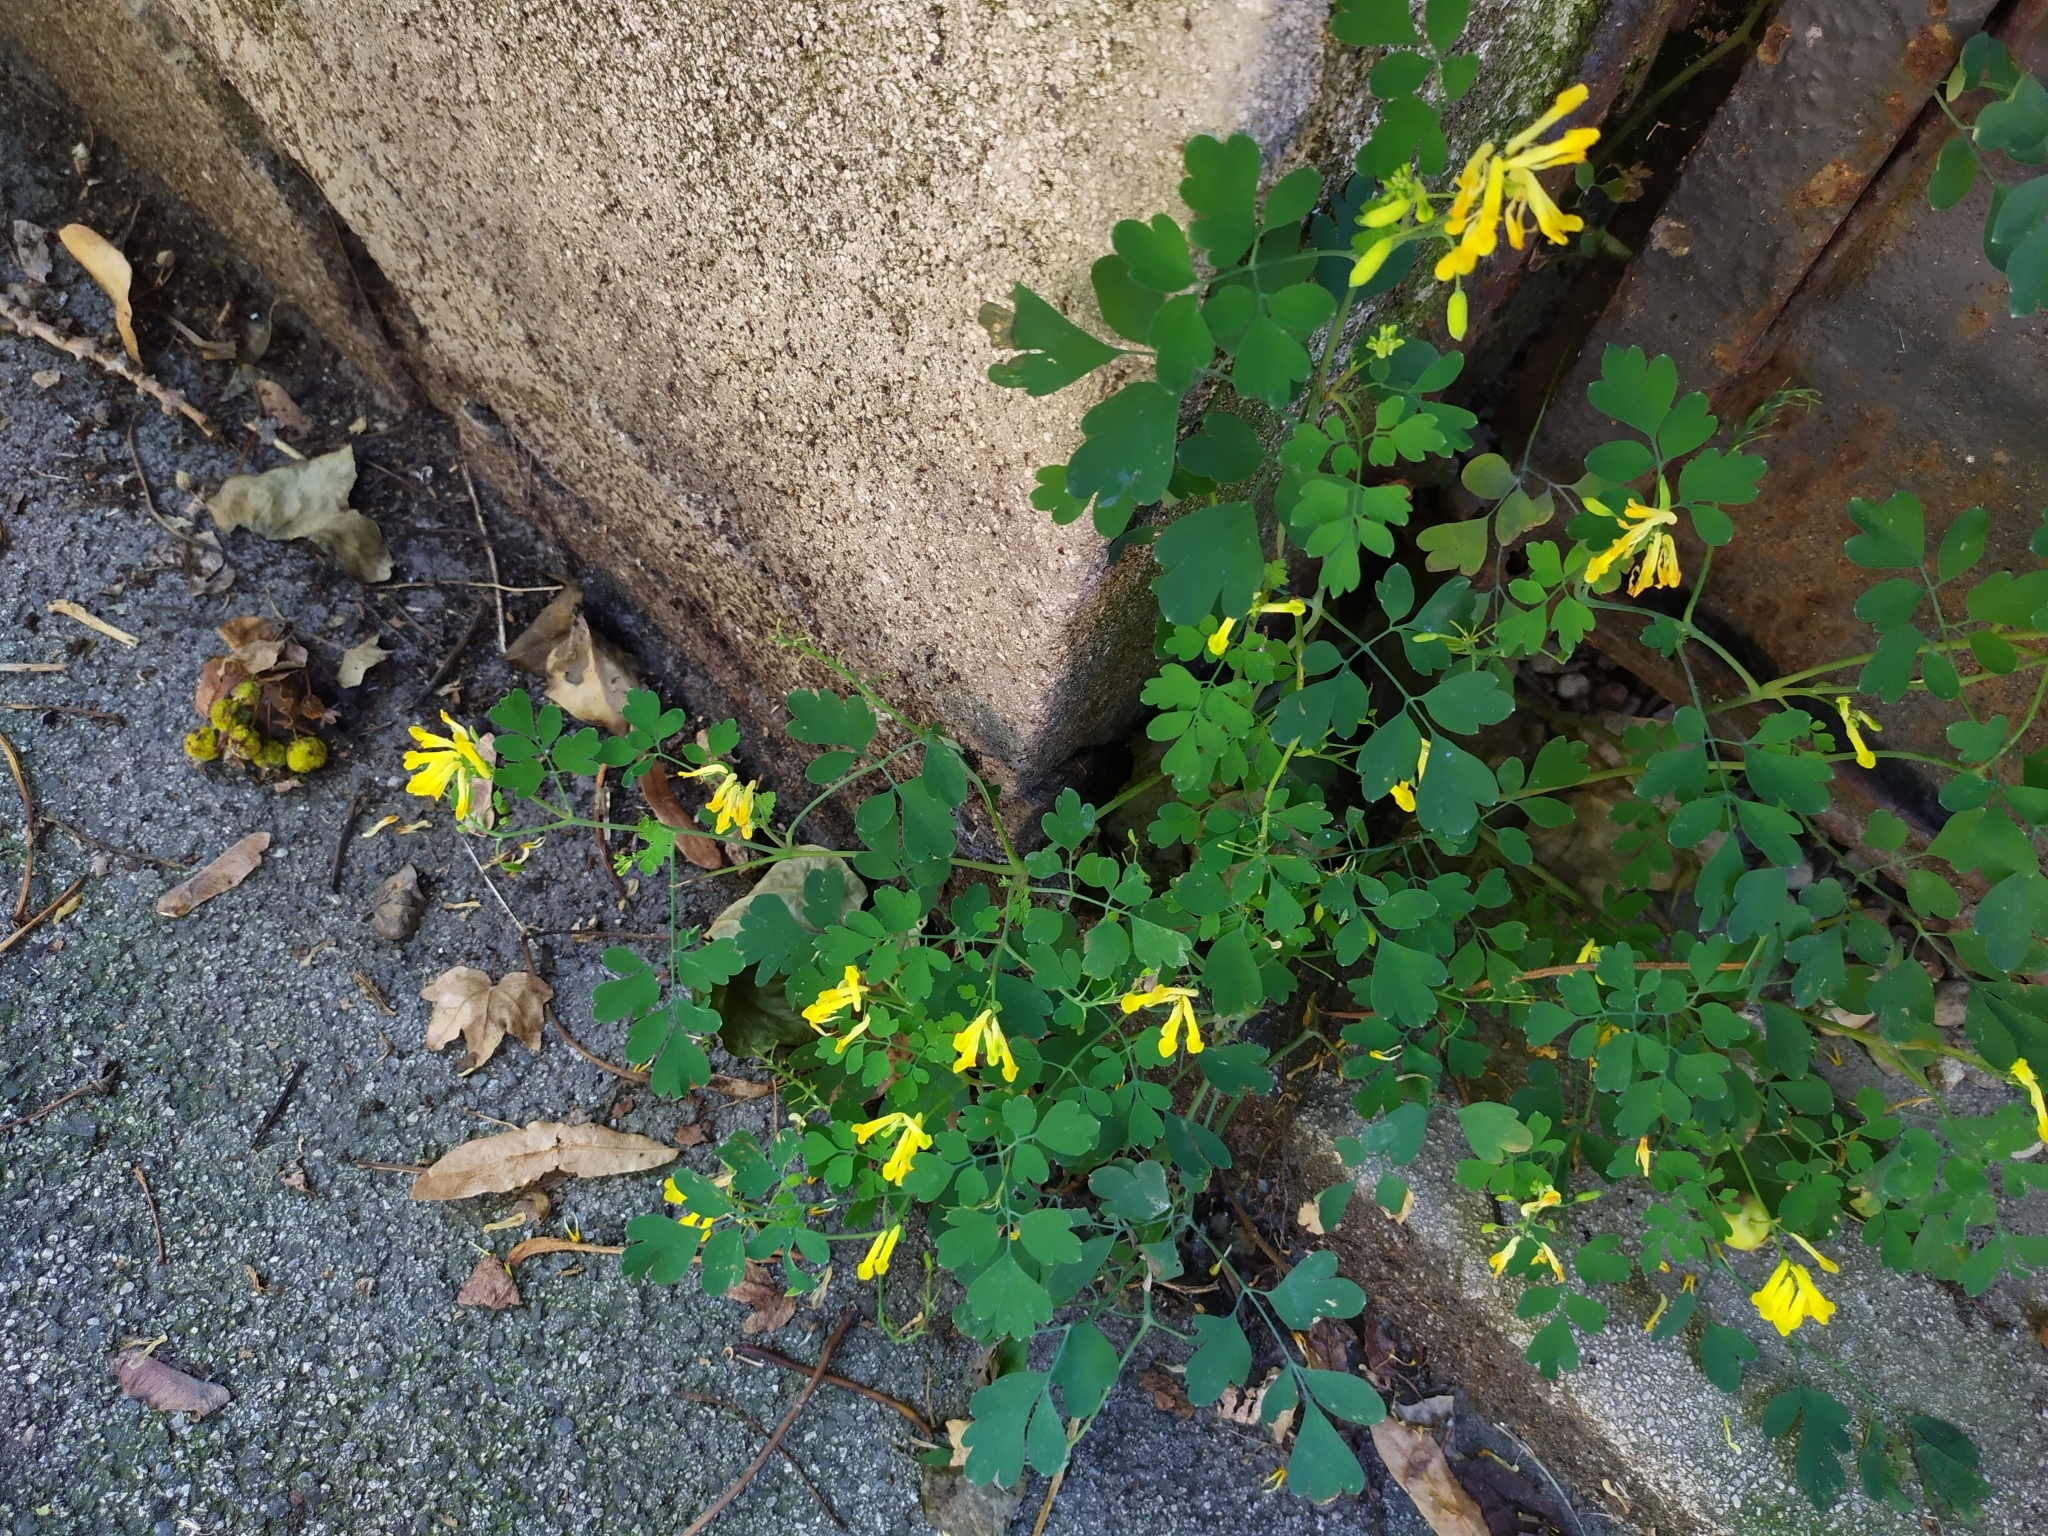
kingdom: Plantae
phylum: Tracheophyta
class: Magnoliopsida
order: Ranunculales
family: Papaveraceae
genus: Pseudofumaria
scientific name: Pseudofumaria lutea
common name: Yellow corydalis
